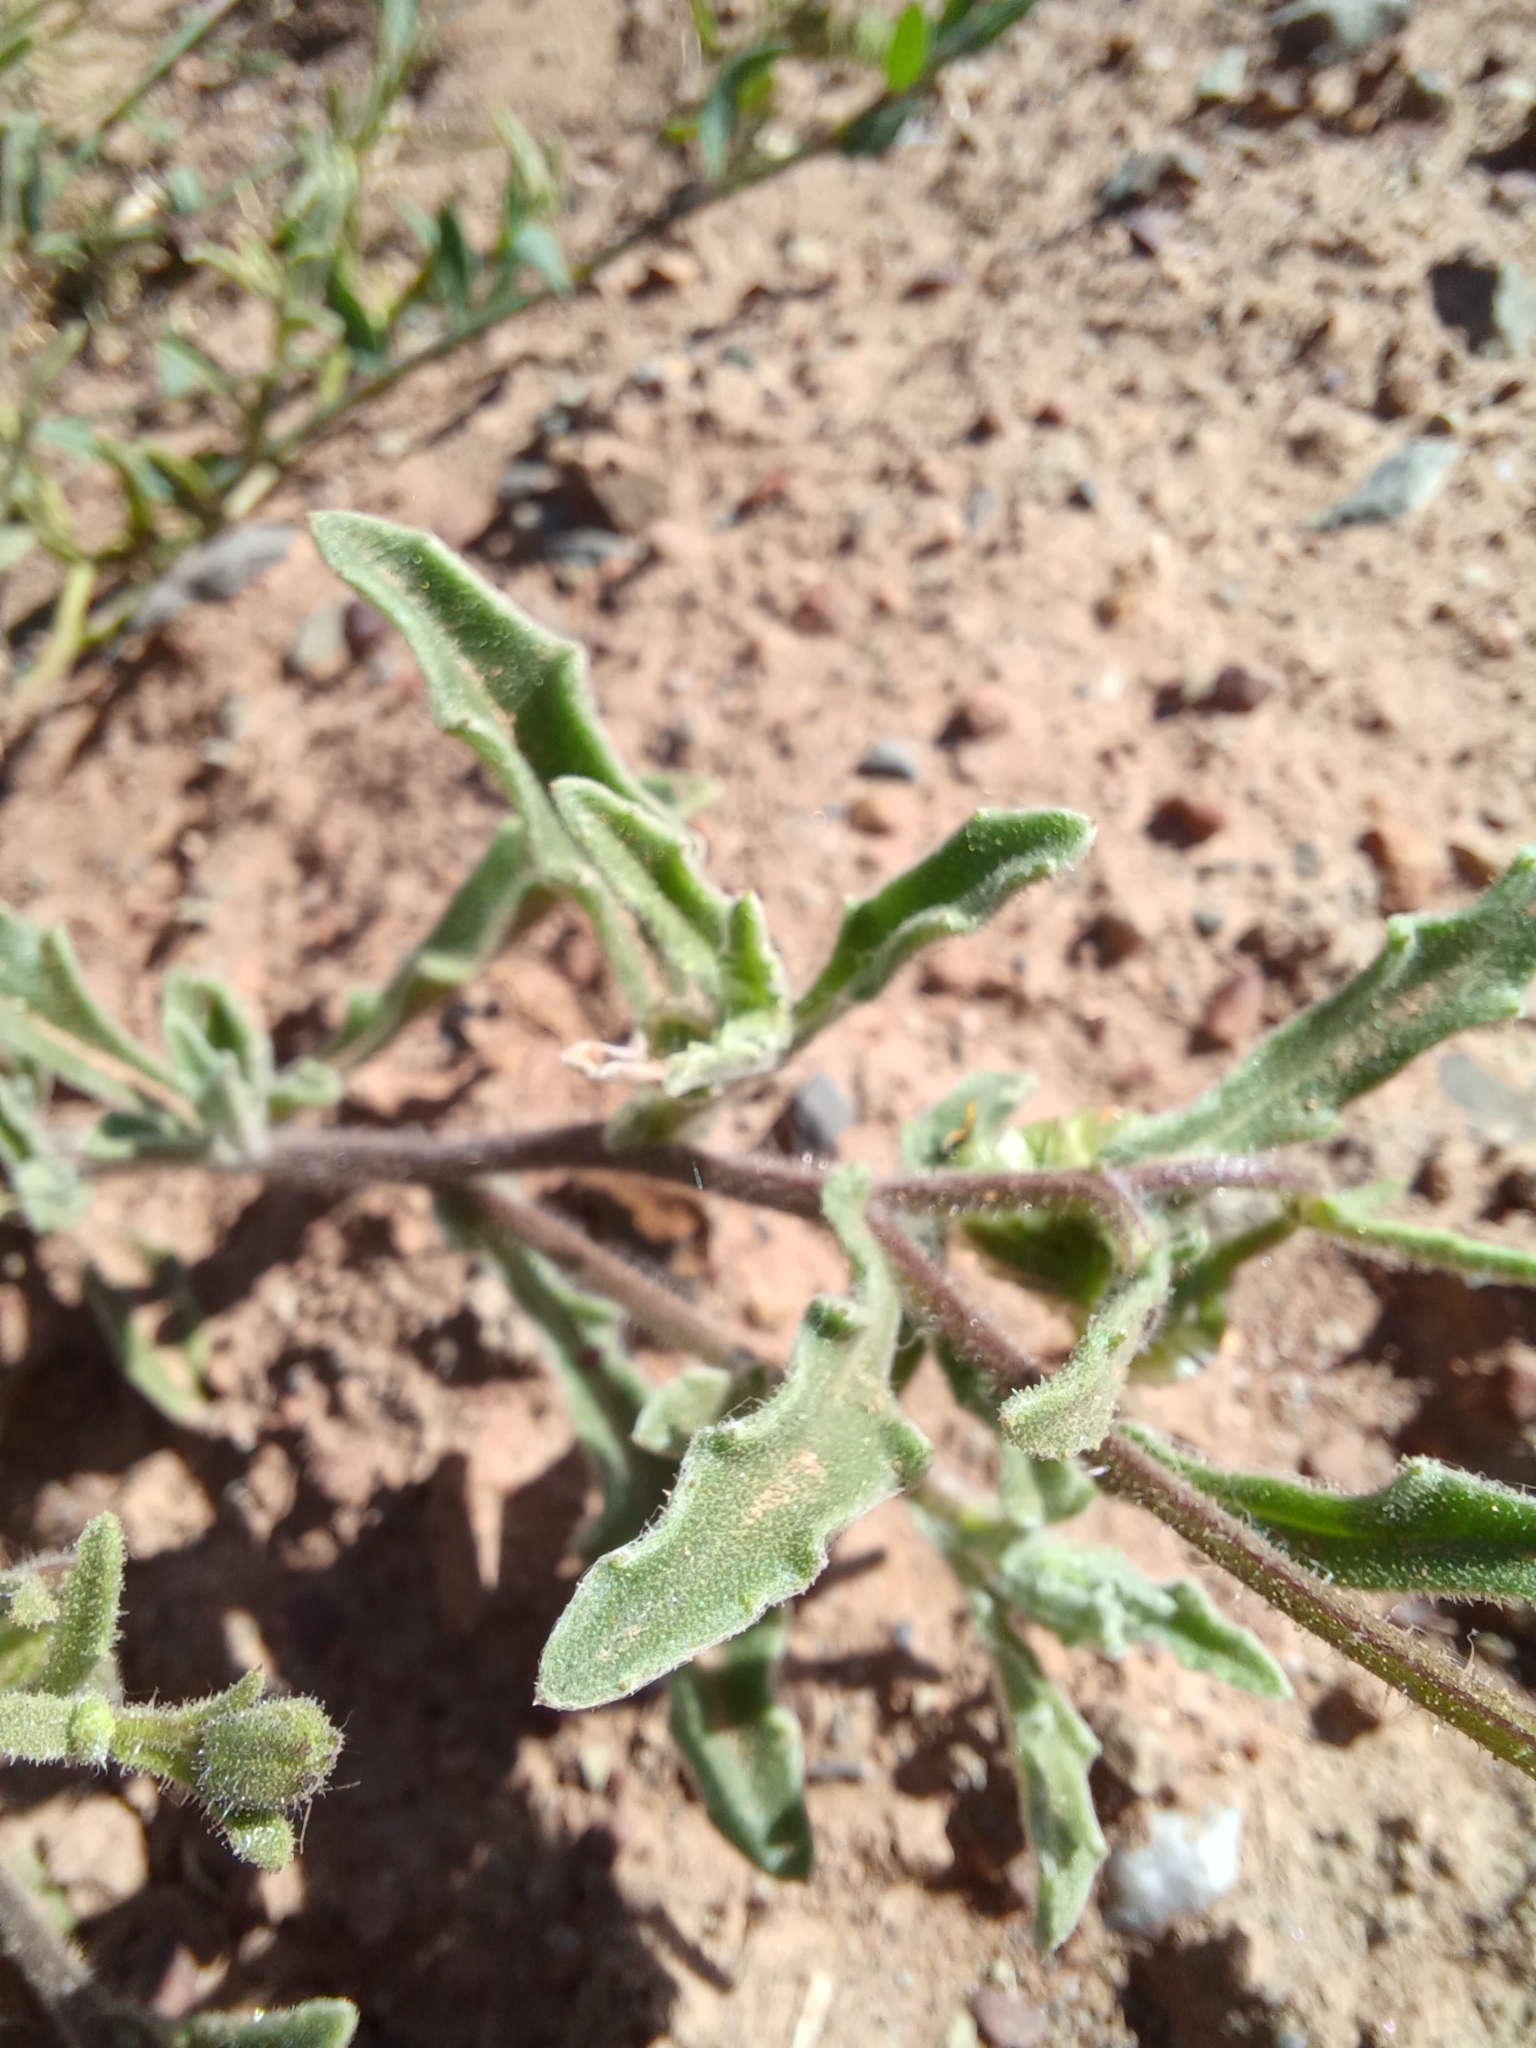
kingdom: Plantae
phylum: Tracheophyta
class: Magnoliopsida
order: Asterales
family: Asteraceae
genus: Osteospermum
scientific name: Osteospermum calendulaceum
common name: Stinking roger
